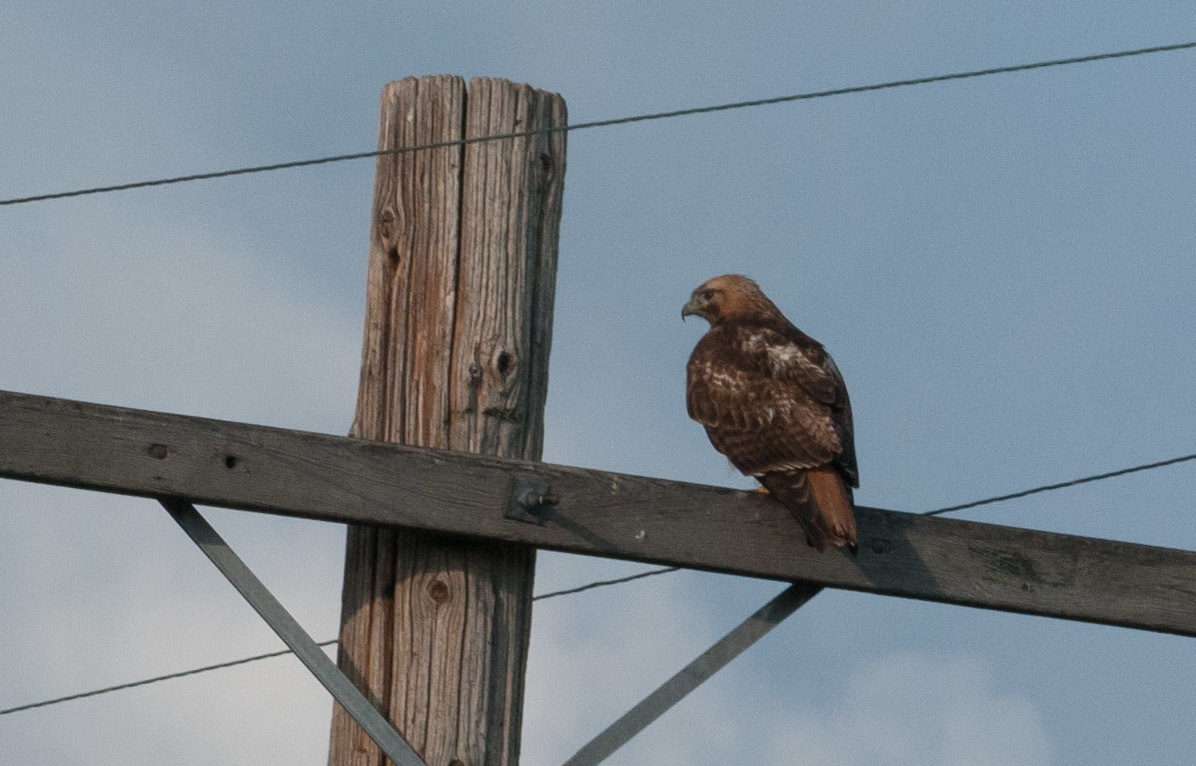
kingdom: Animalia
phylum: Chordata
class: Aves
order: Accipitriformes
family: Accipitridae
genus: Buteo
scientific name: Buteo jamaicensis
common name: Red-tailed hawk
